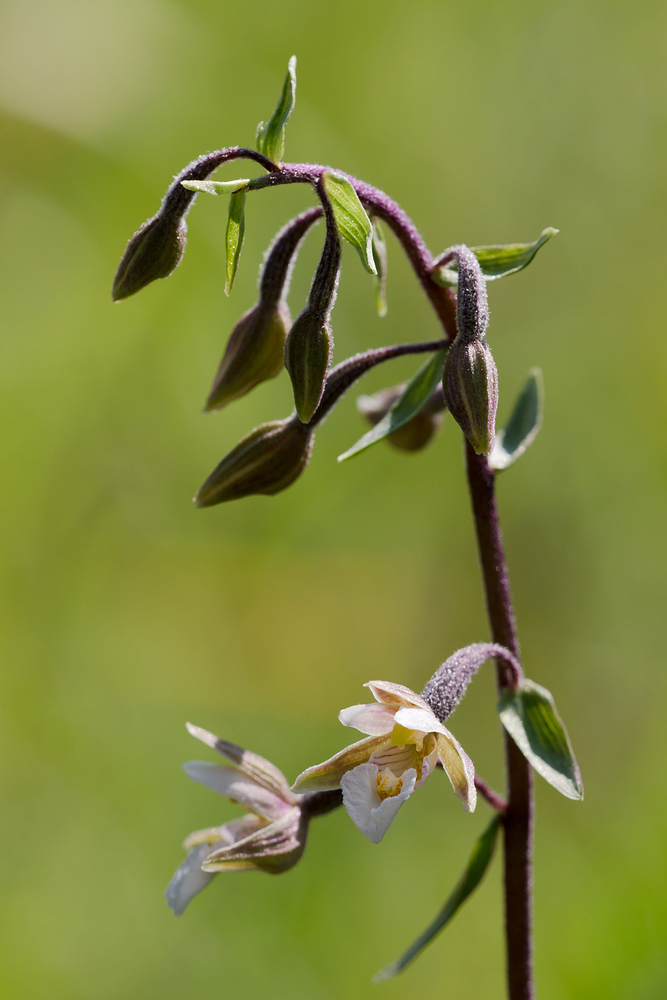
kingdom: Plantae
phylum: Tracheophyta
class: Liliopsida
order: Asparagales
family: Orchidaceae
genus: Epipactis
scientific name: Epipactis palustris
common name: Marsh helleborine
